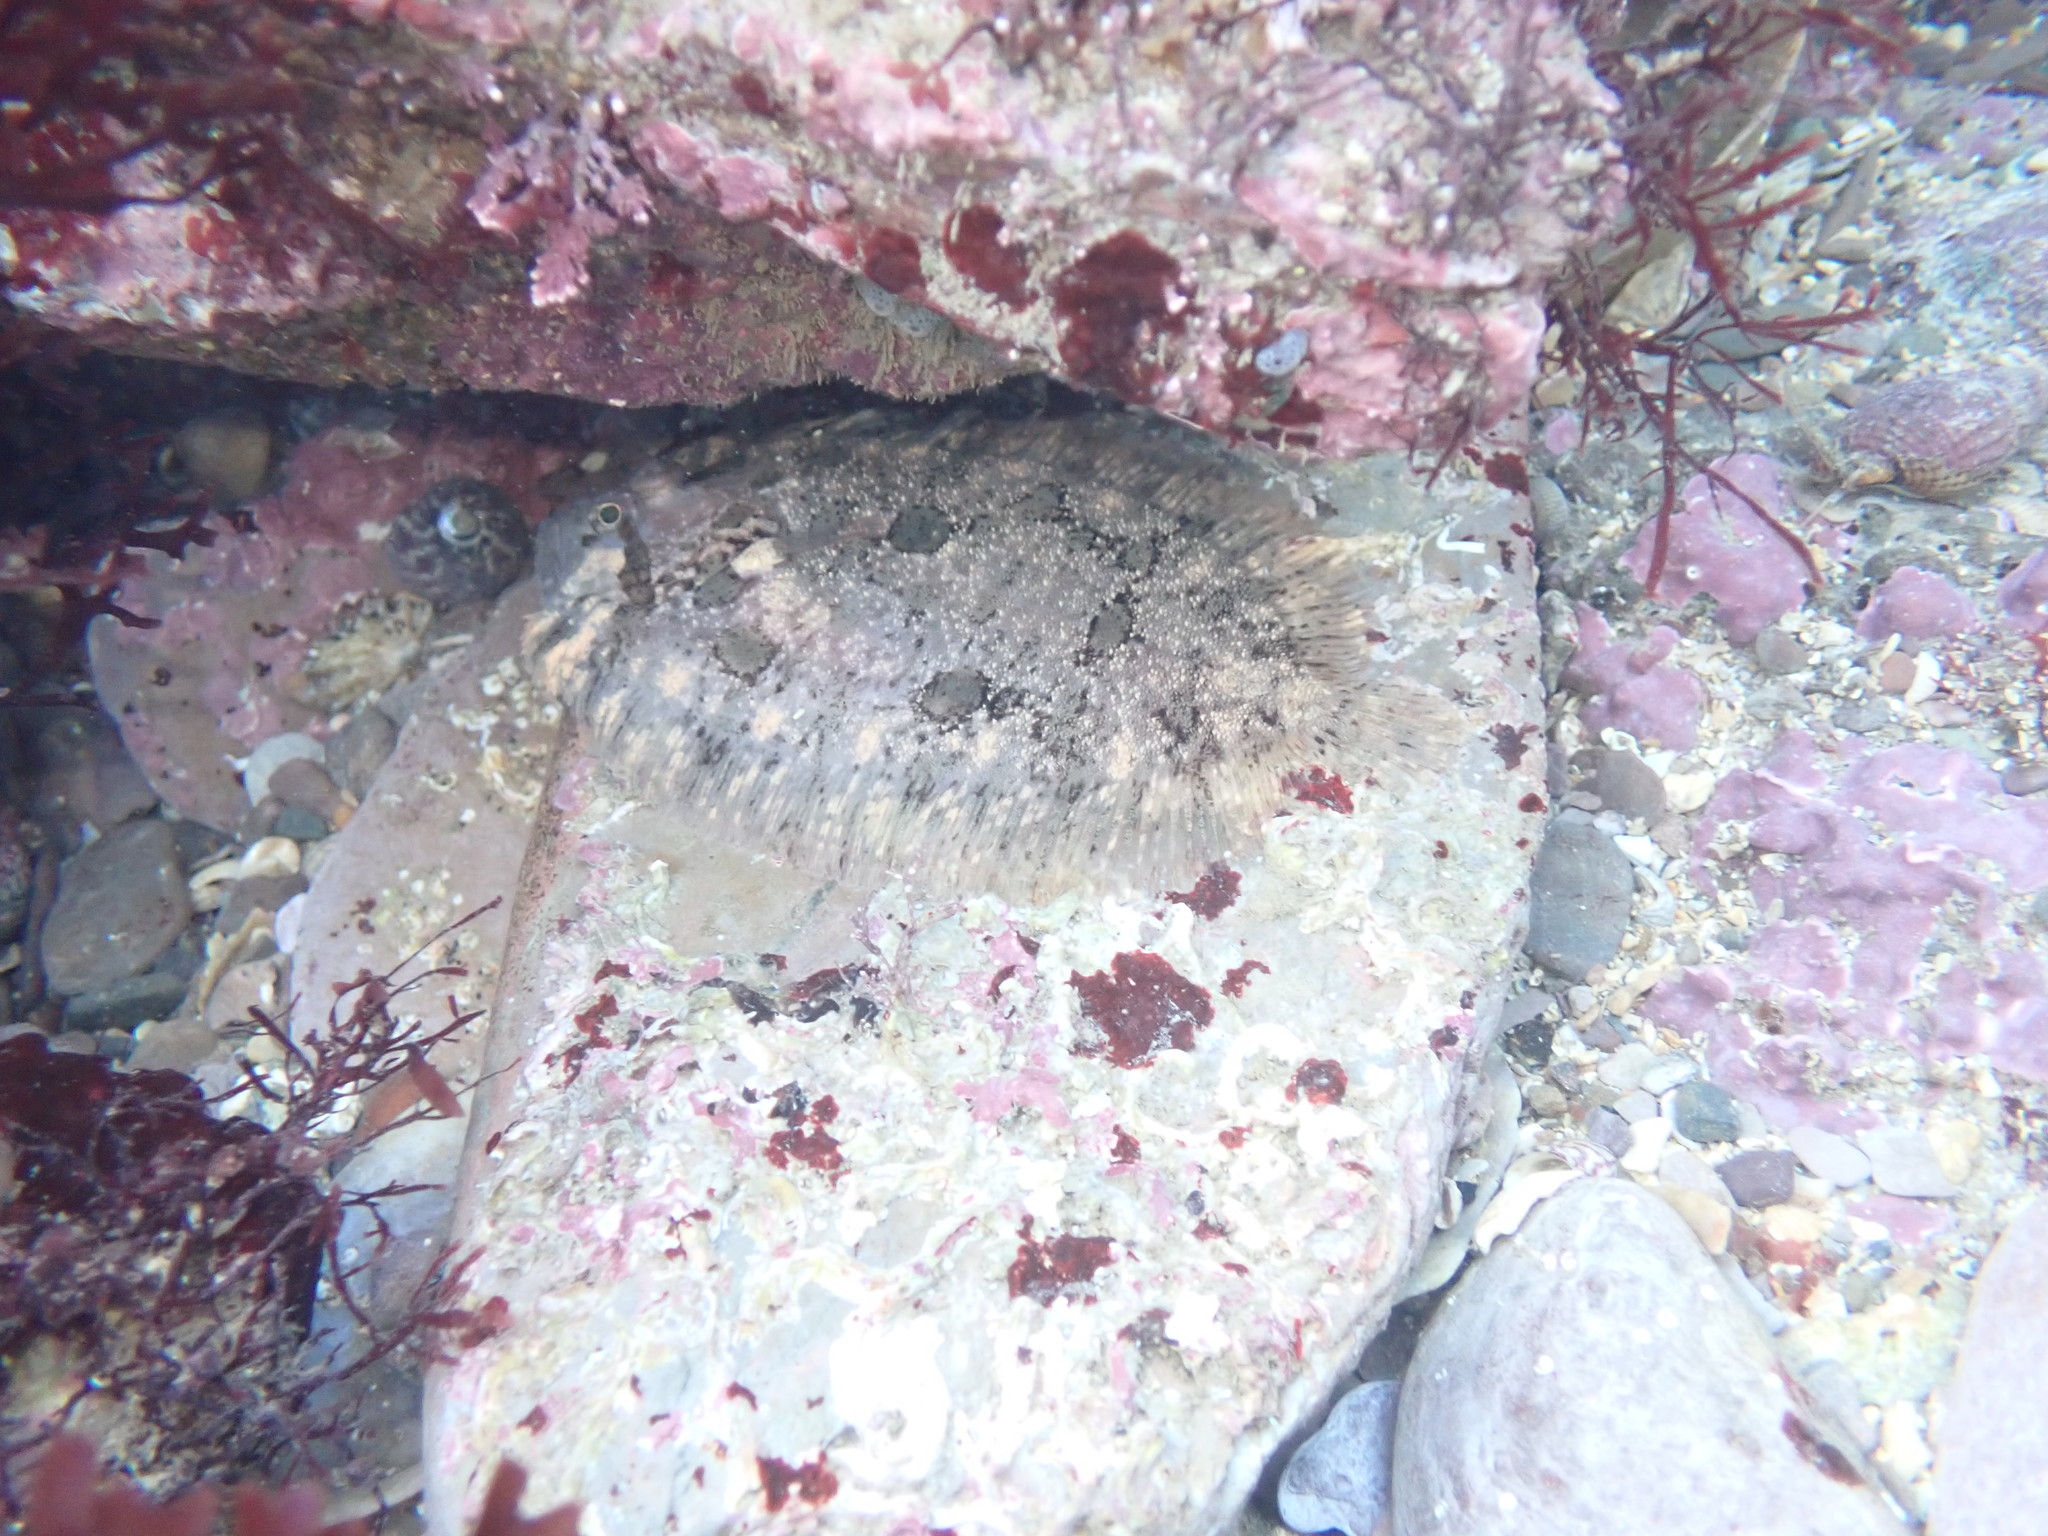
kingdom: Animalia
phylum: Chordata
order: Pleuronectiformes
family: Scophthalmidae
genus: Zeugopterus
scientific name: Zeugopterus punctatus
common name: Topknot
